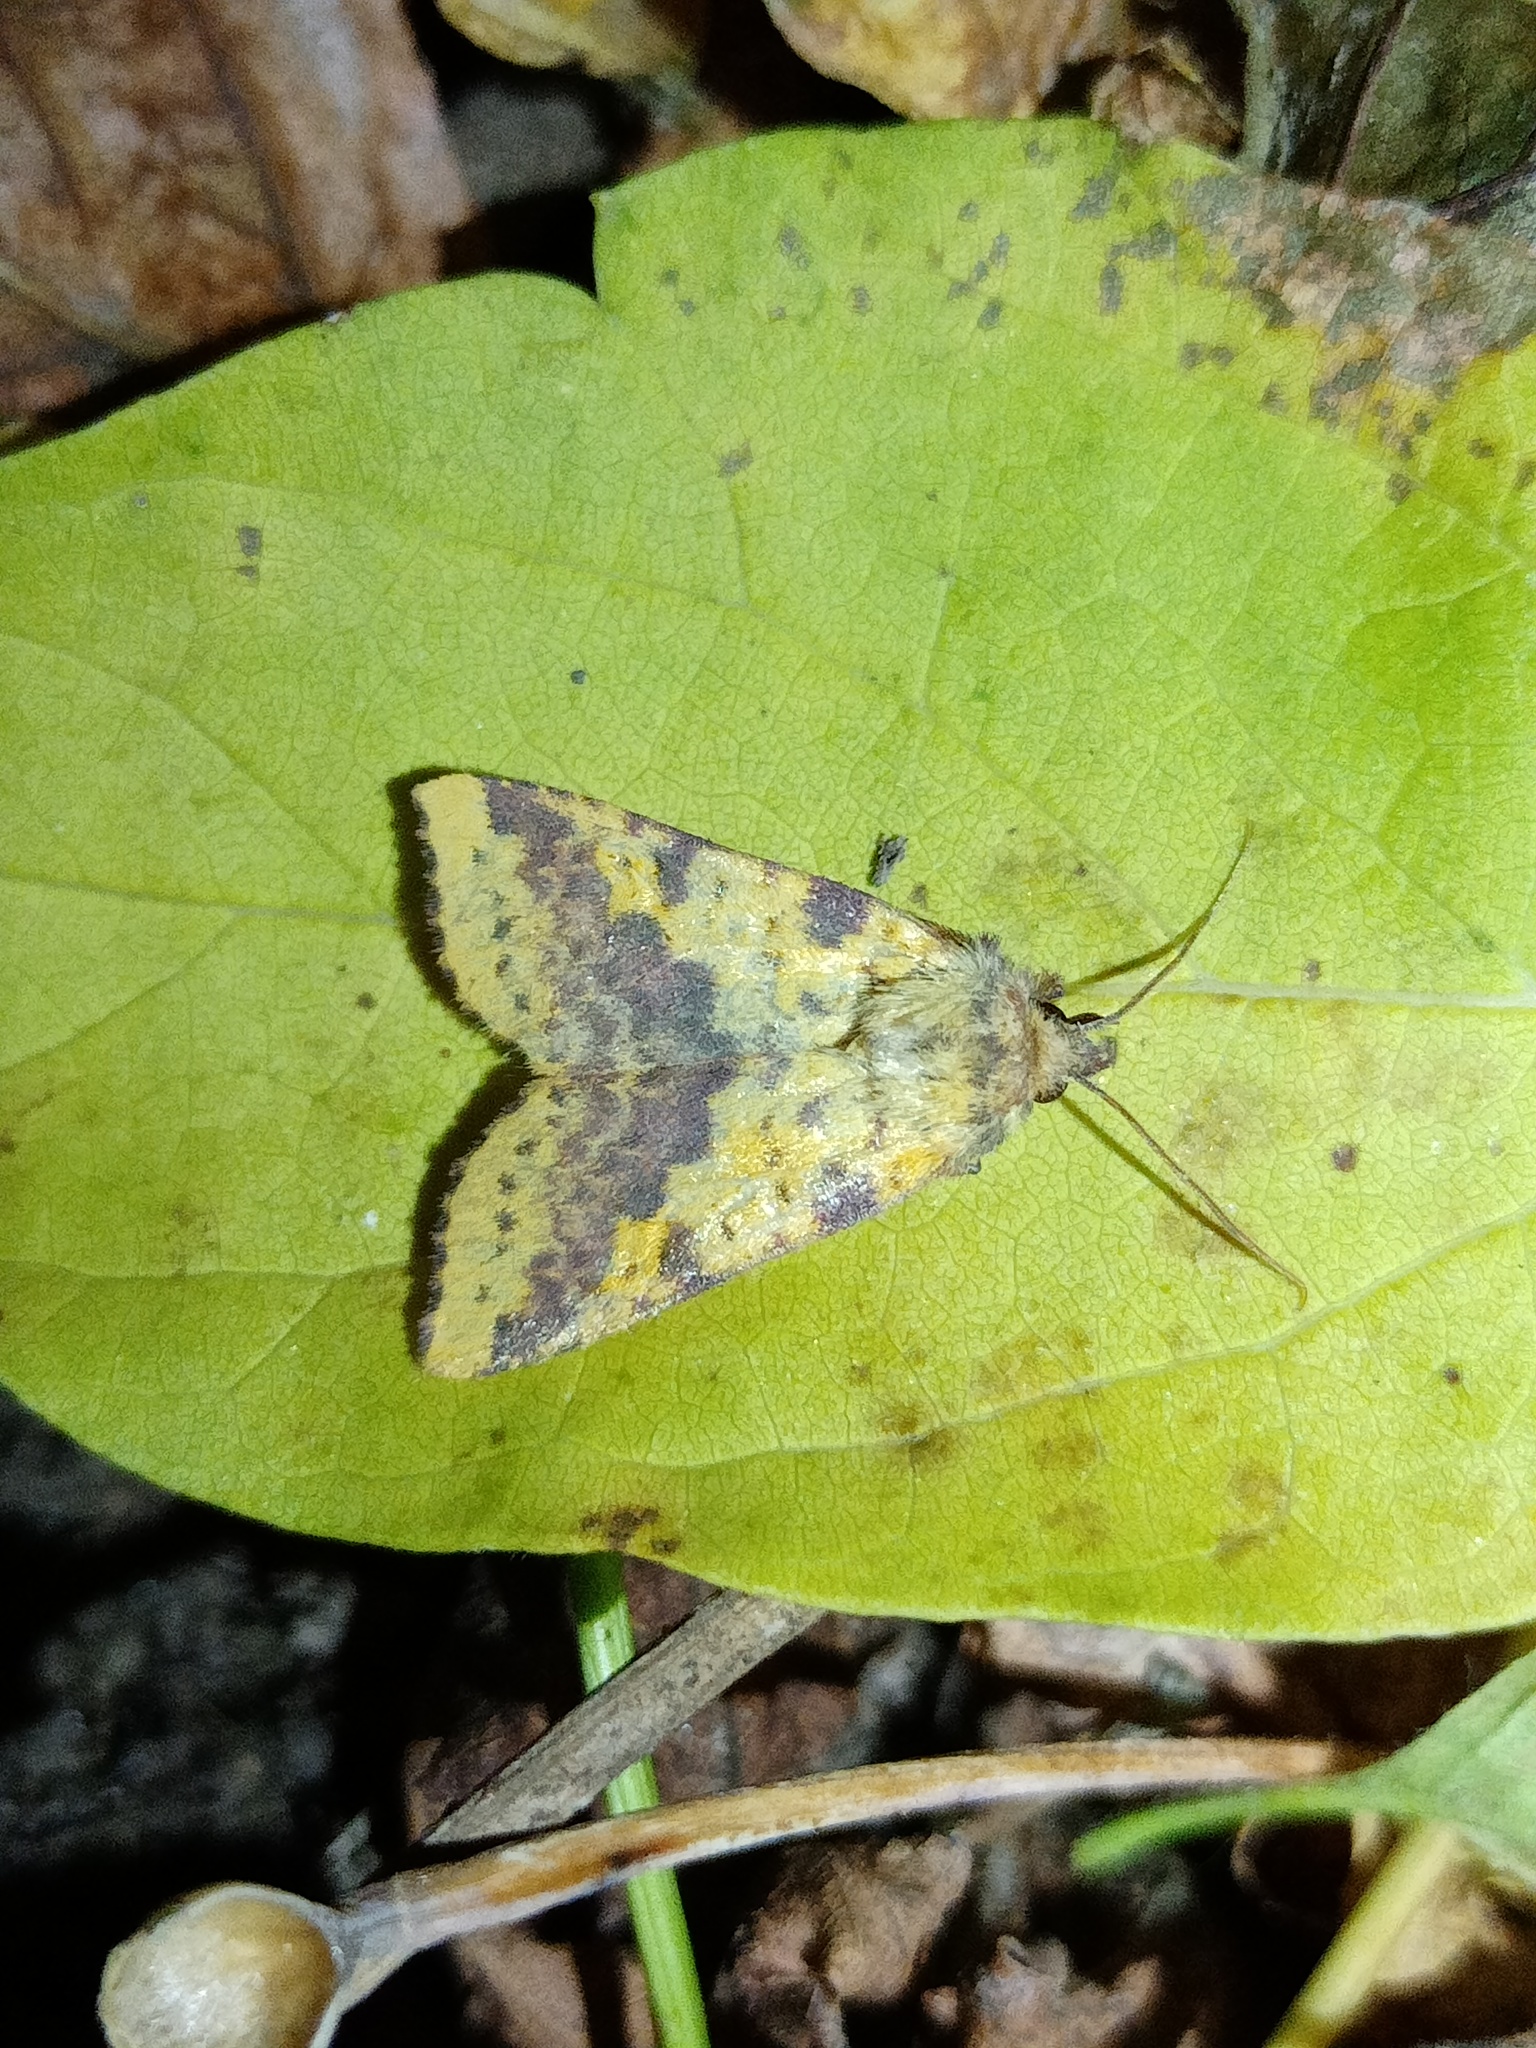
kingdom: Animalia
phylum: Arthropoda
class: Insecta
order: Lepidoptera
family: Noctuidae
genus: Xanthia
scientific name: Xanthia togata
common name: Pink-barred sallow
